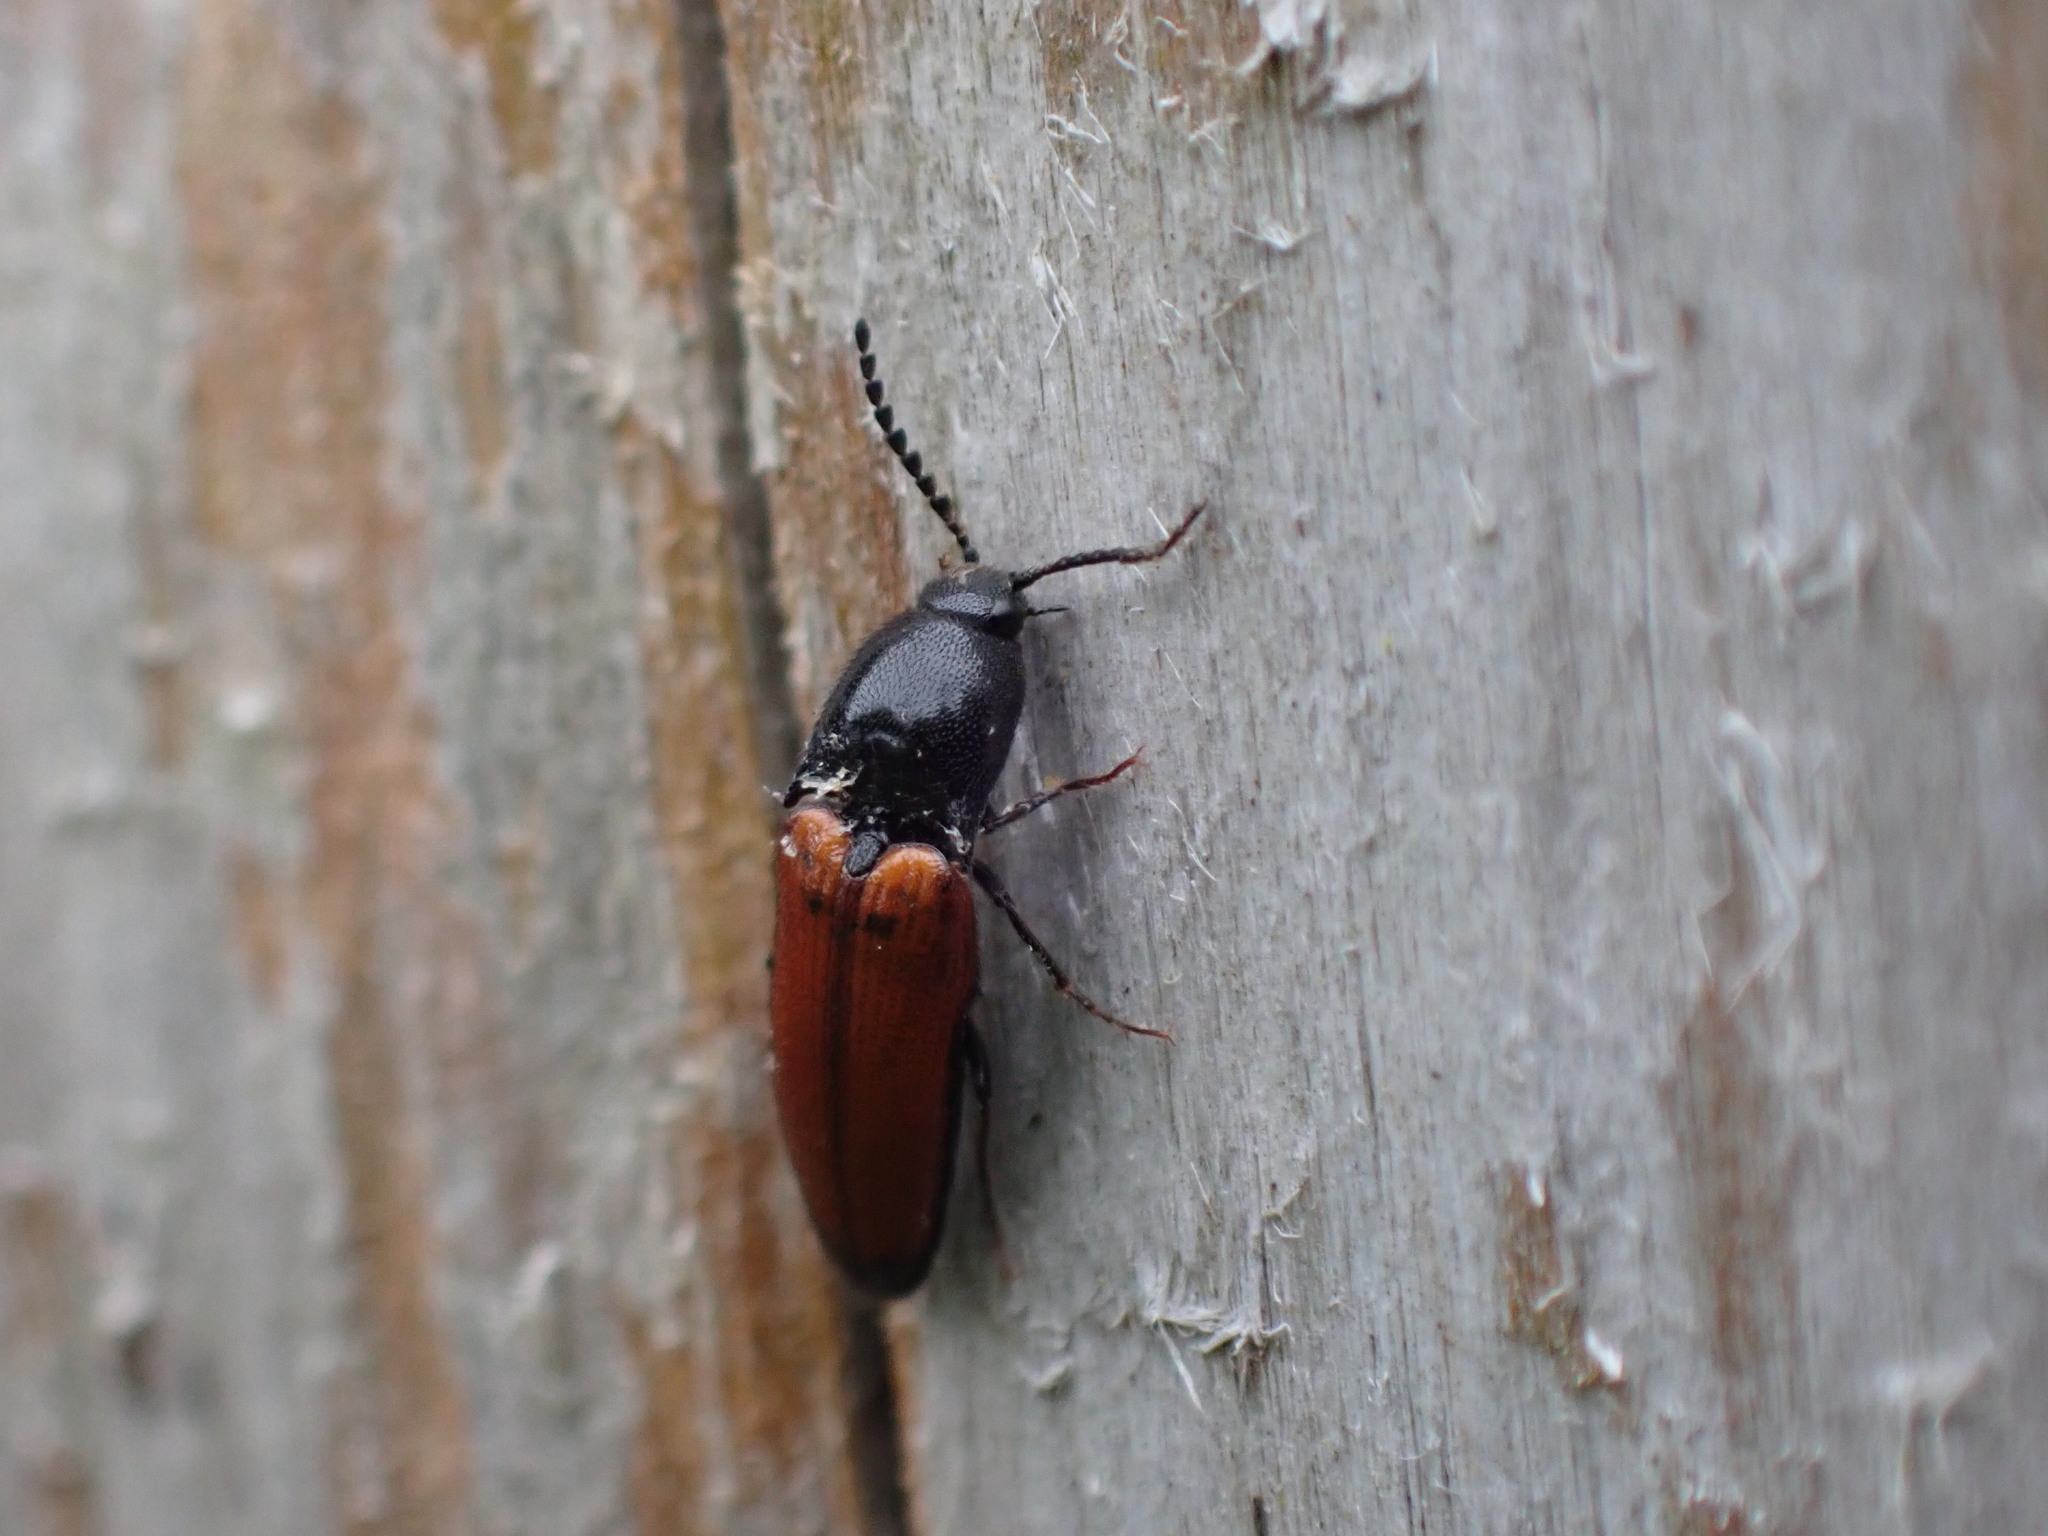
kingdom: Animalia
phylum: Arthropoda
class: Insecta
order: Coleoptera
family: Elateridae
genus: Ampedus
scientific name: Ampedus elongatulus
